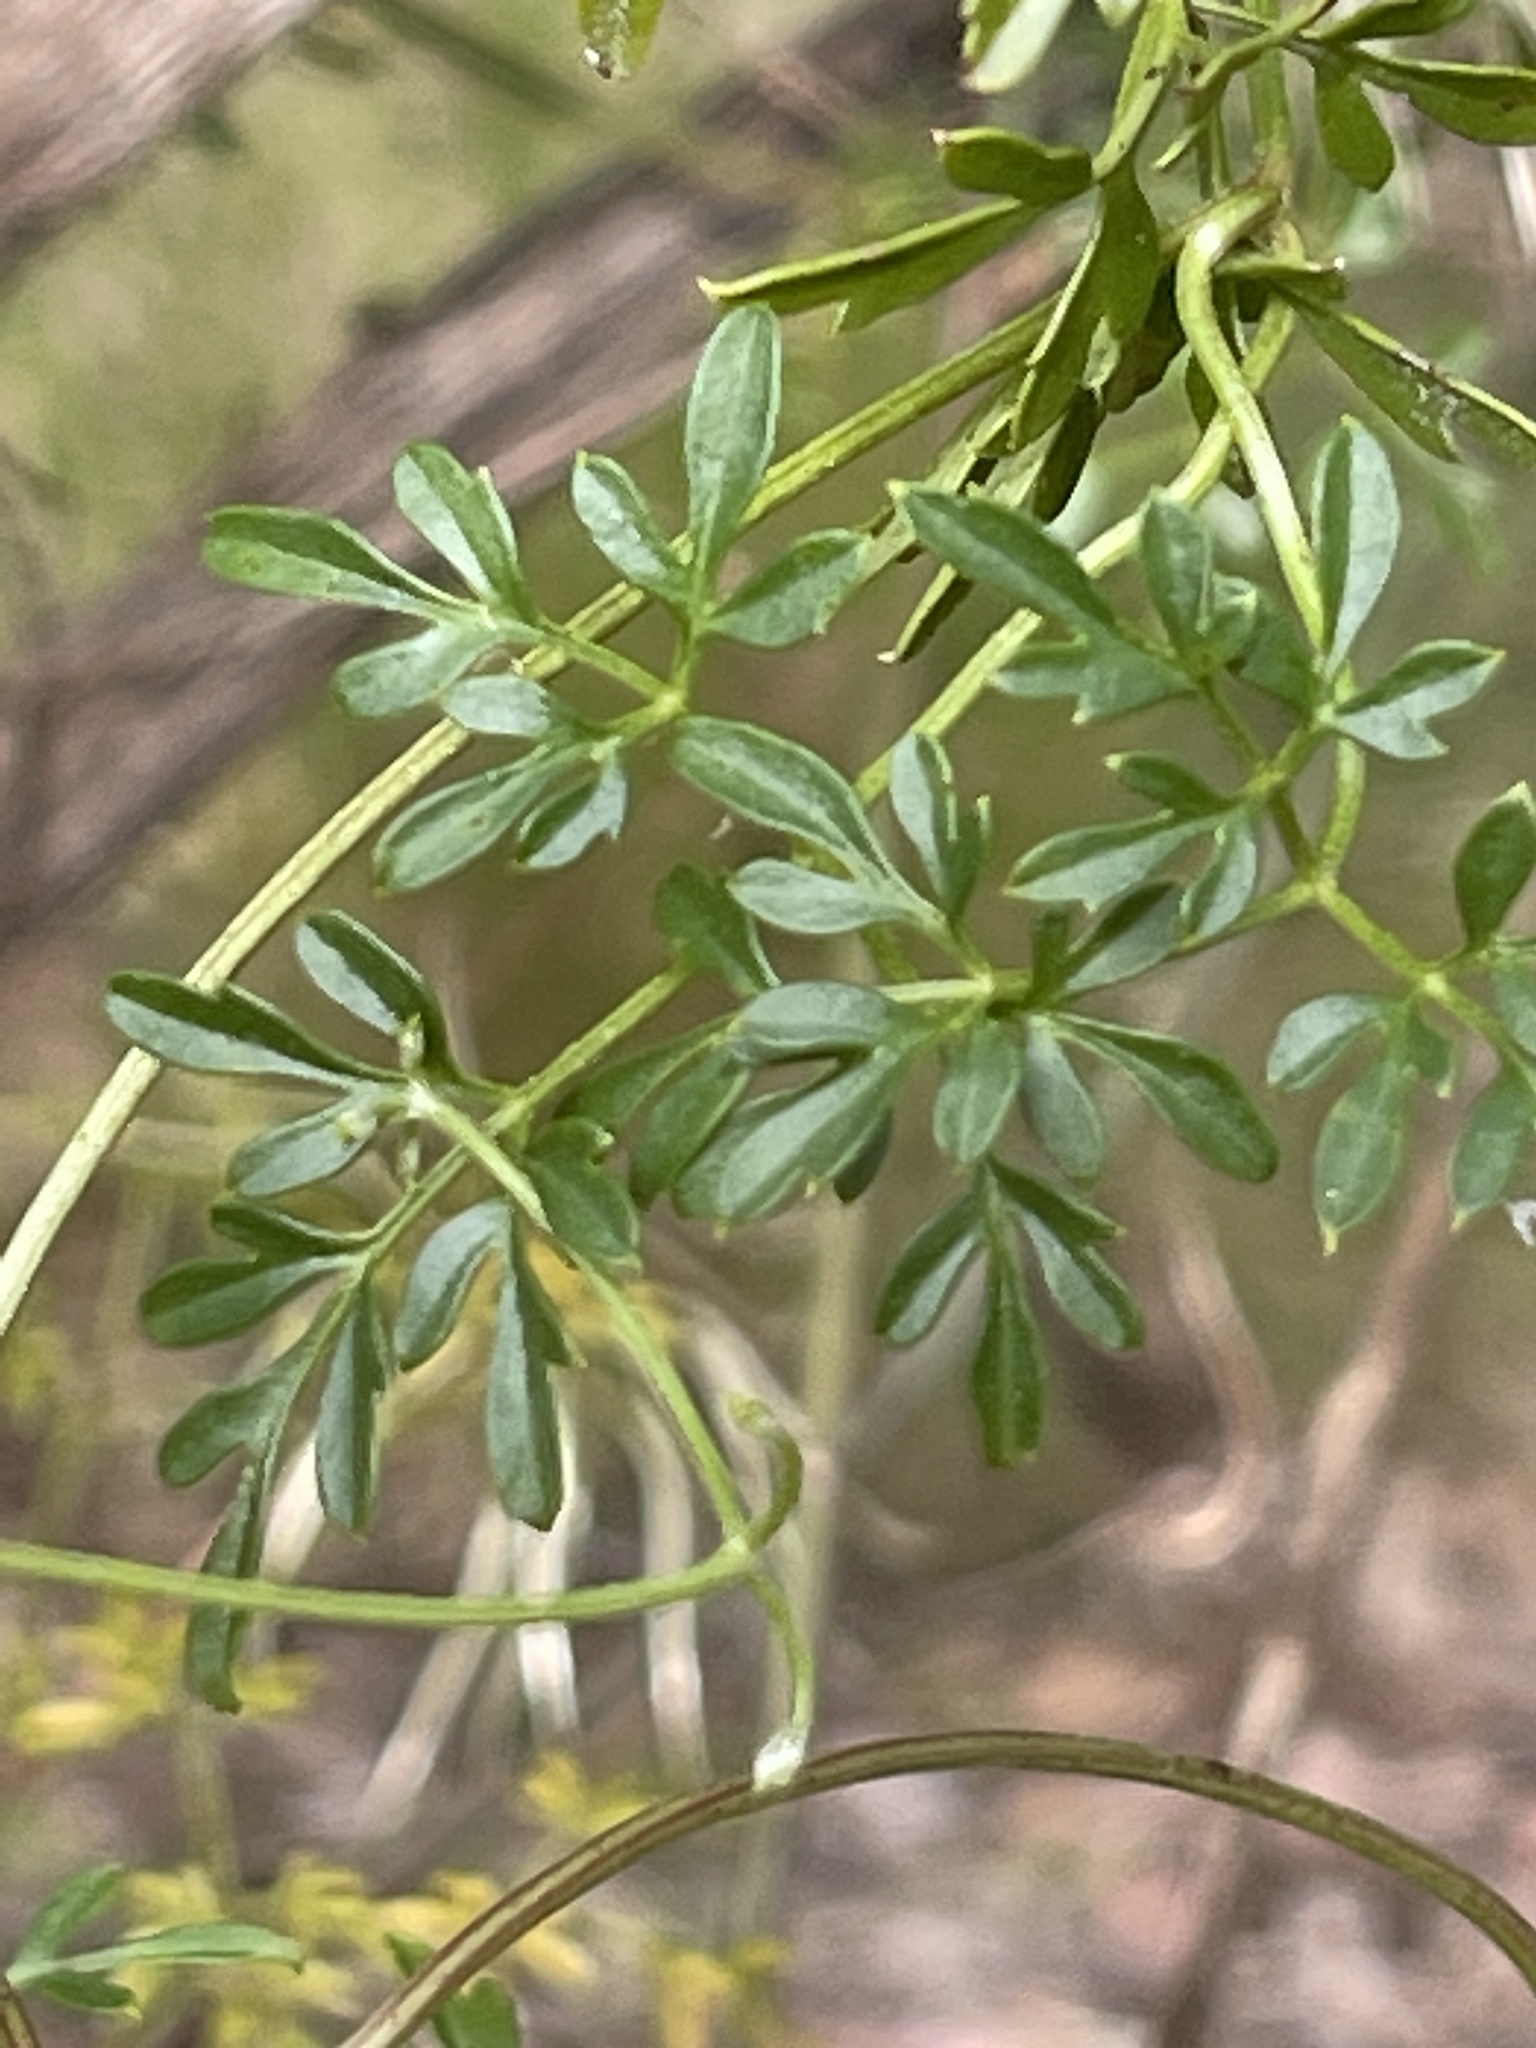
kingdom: Plantae
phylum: Tracheophyta
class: Magnoliopsida
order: Ranunculales
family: Ranunculaceae
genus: Clematis
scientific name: Clematis leptophylla
